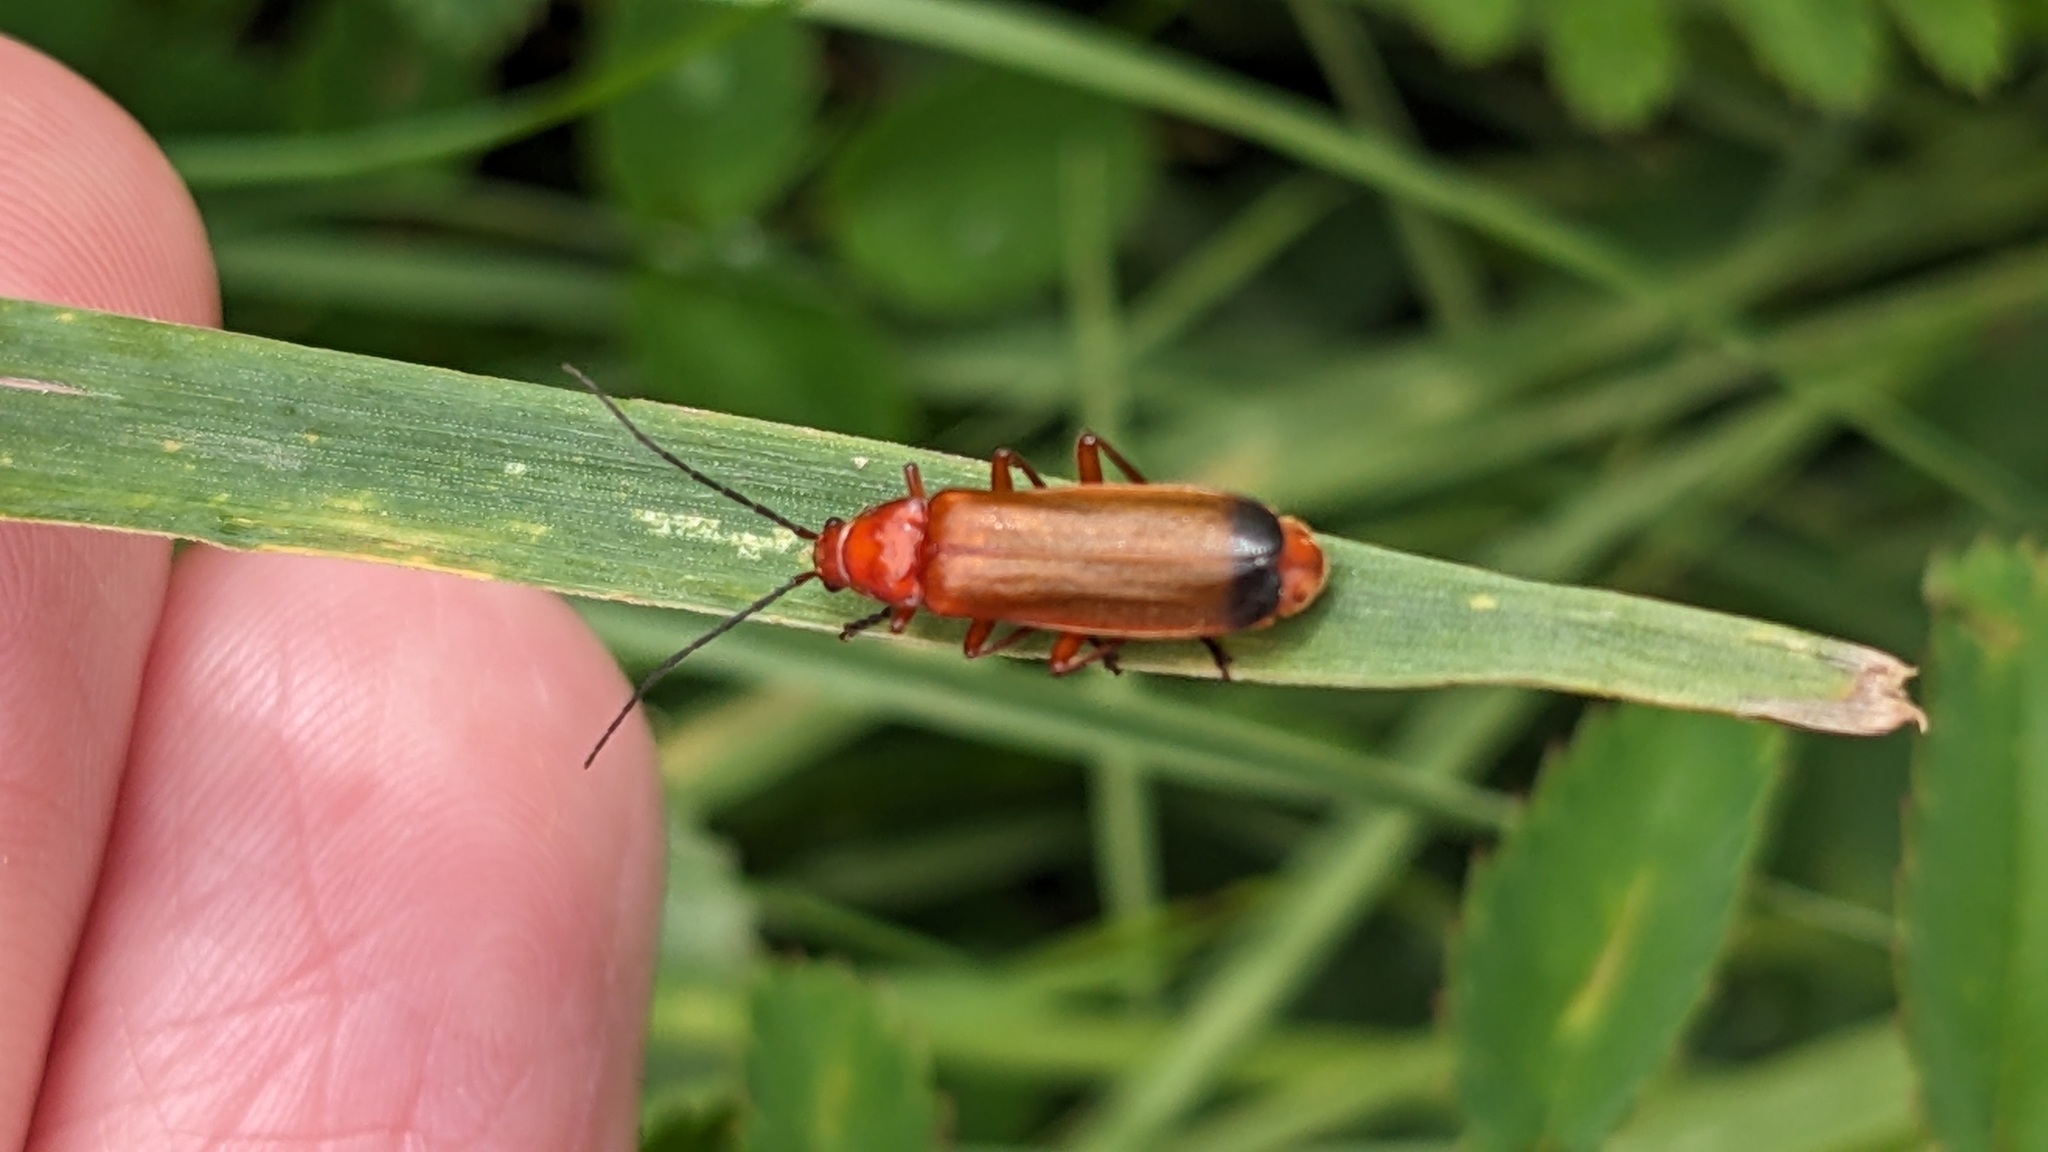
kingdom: Animalia
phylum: Arthropoda
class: Insecta
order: Coleoptera
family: Cantharidae
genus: Rhagonycha
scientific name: Rhagonycha fulva
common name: Common red soldier beetle
